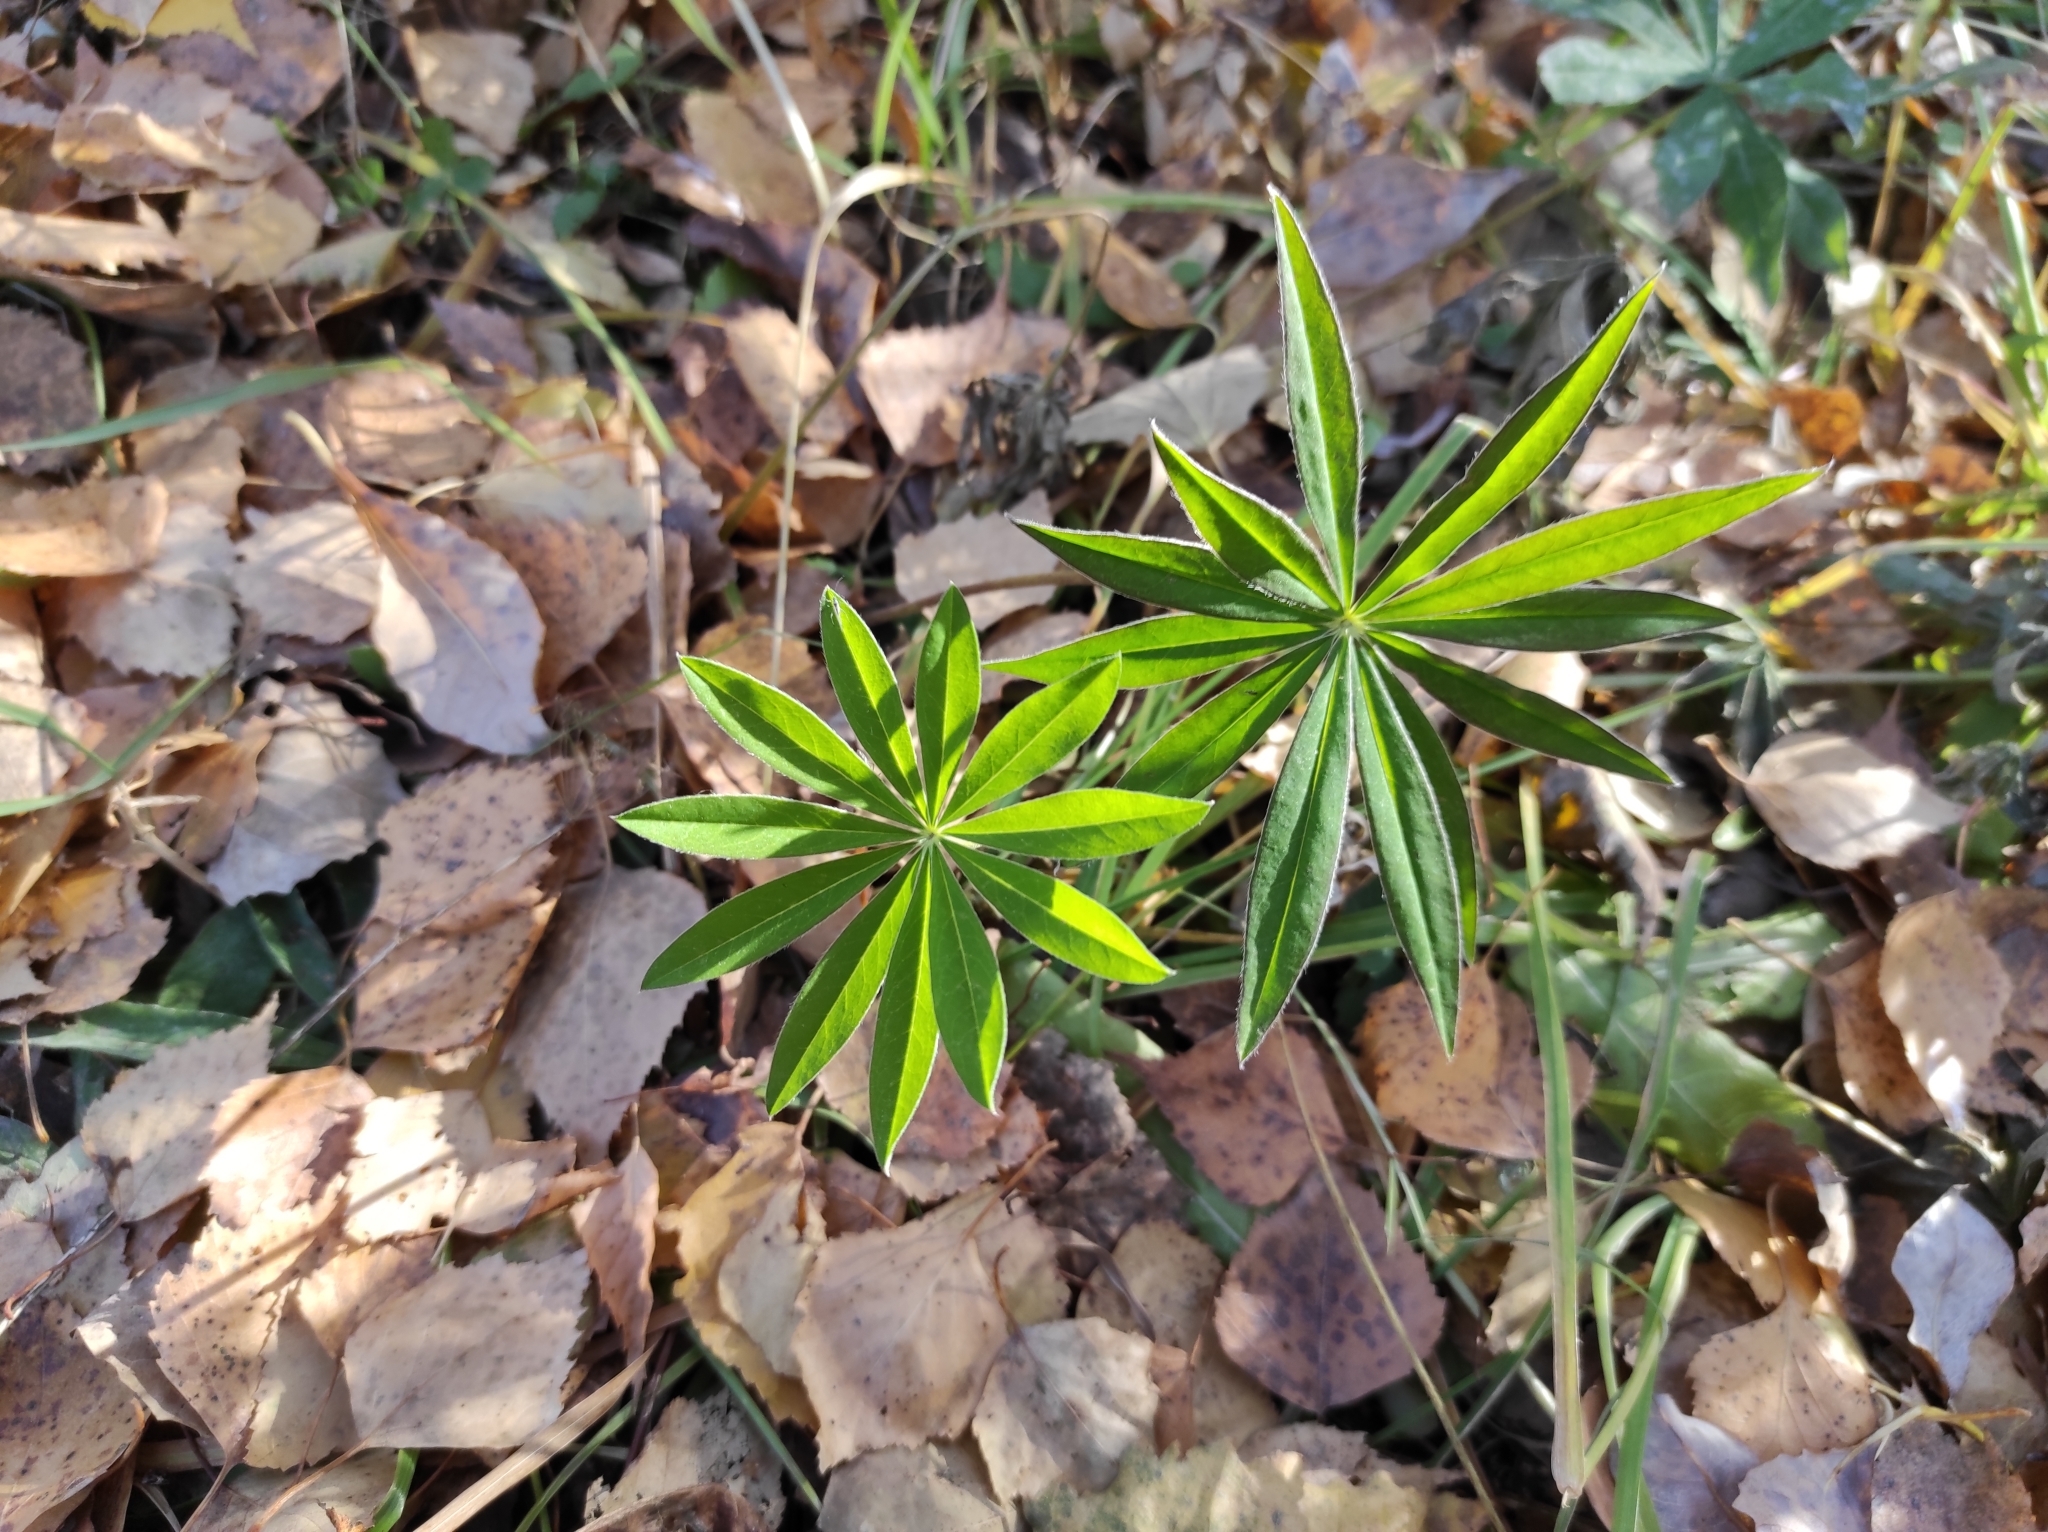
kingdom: Plantae
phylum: Tracheophyta
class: Magnoliopsida
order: Fabales
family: Fabaceae
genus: Lupinus
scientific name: Lupinus polyphyllus
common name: Garden lupin
